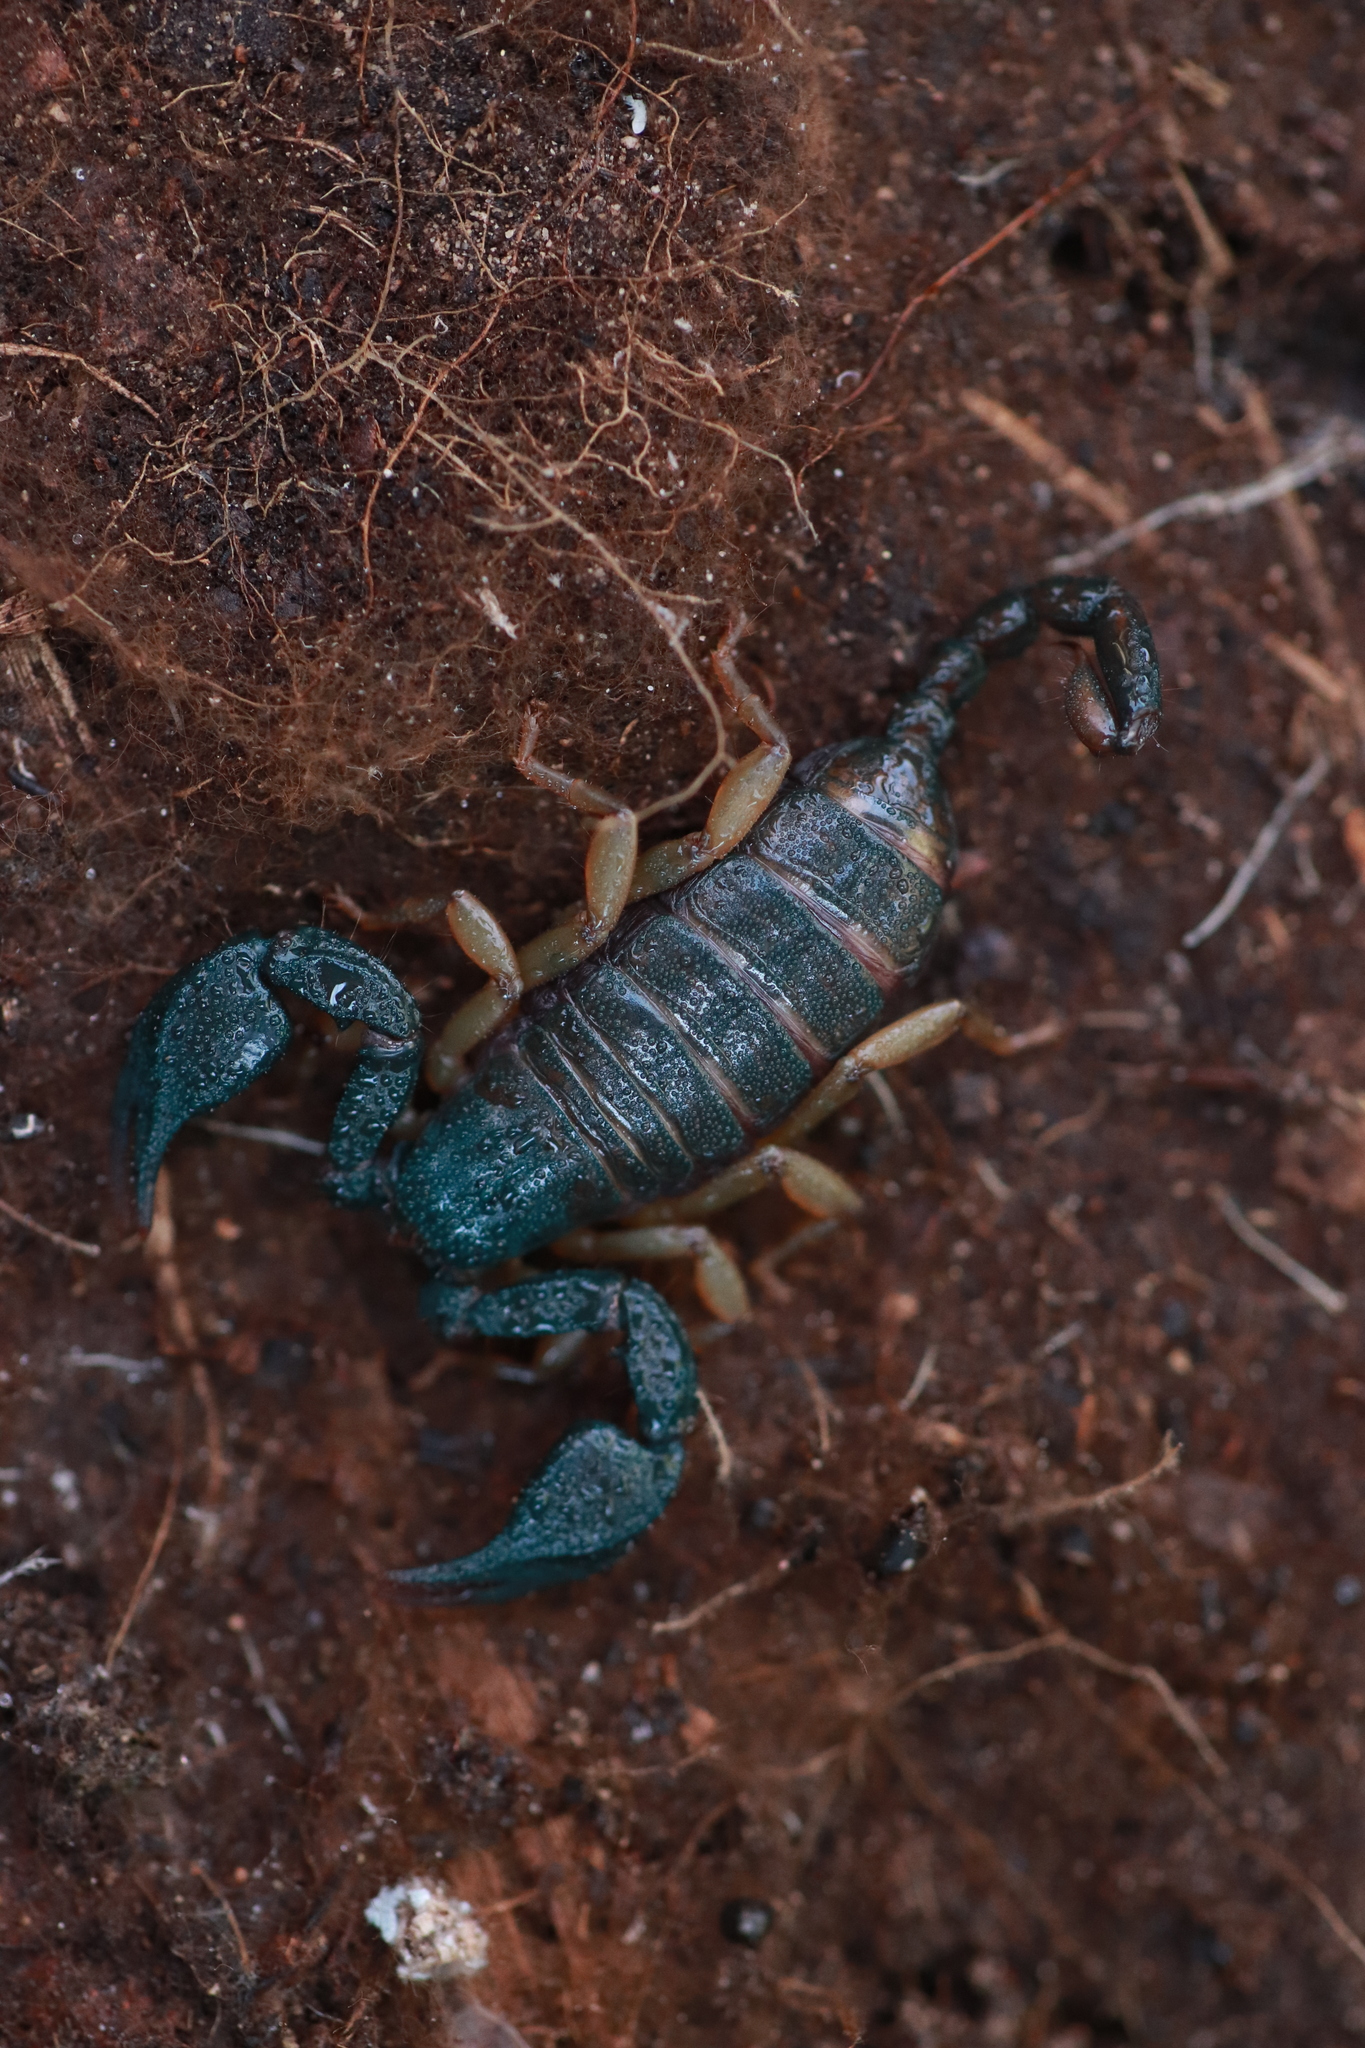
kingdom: Animalia
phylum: Arthropoda
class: Arachnida
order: Scorpiones
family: Euscorpiidae
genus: Euscorpius
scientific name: Euscorpius
